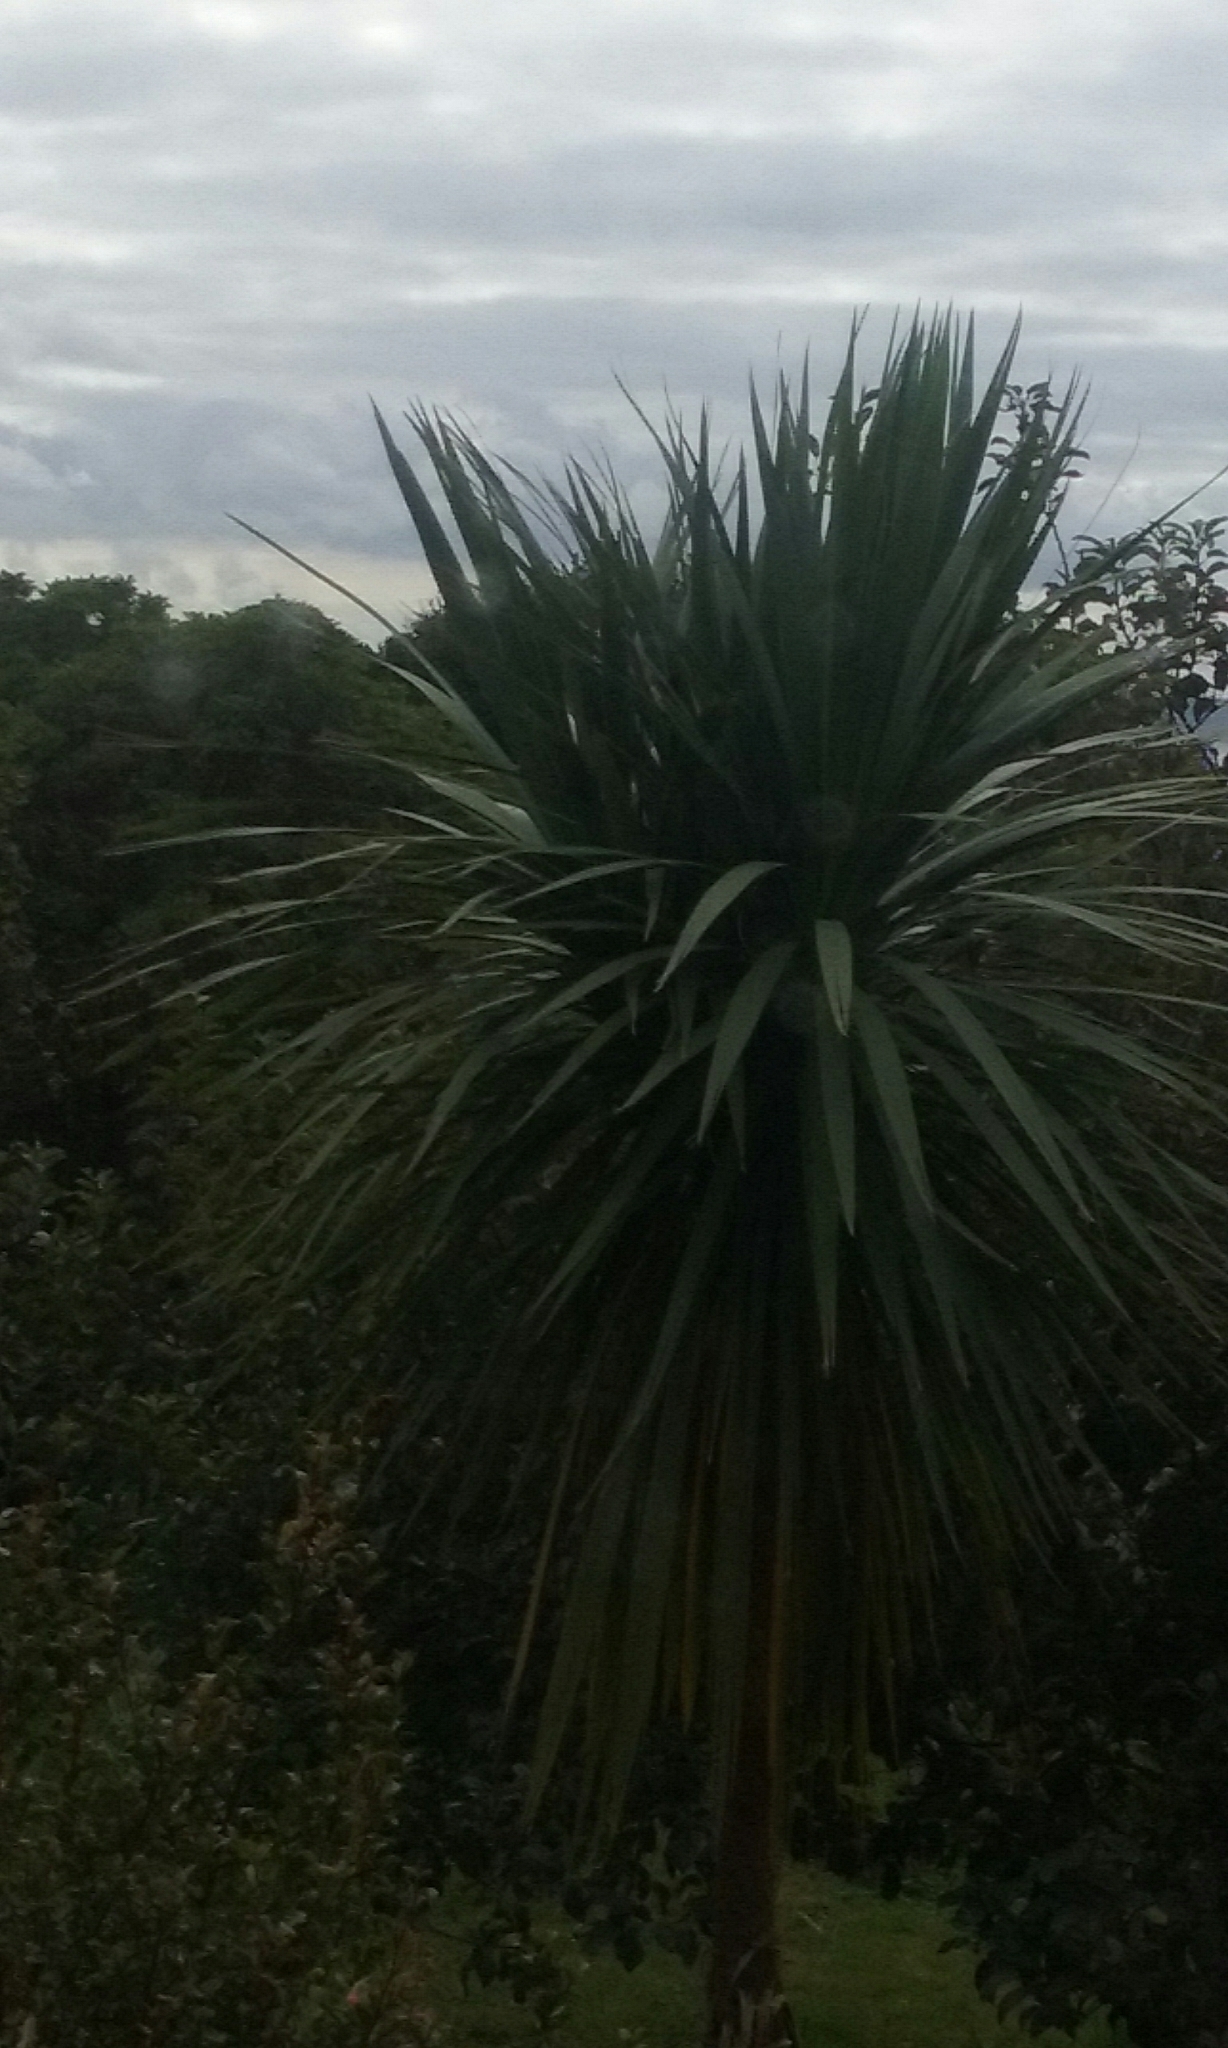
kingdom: Plantae
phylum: Tracheophyta
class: Liliopsida
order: Asparagales
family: Asparagaceae
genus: Cordyline
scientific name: Cordyline australis
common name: Cabbage-palm
